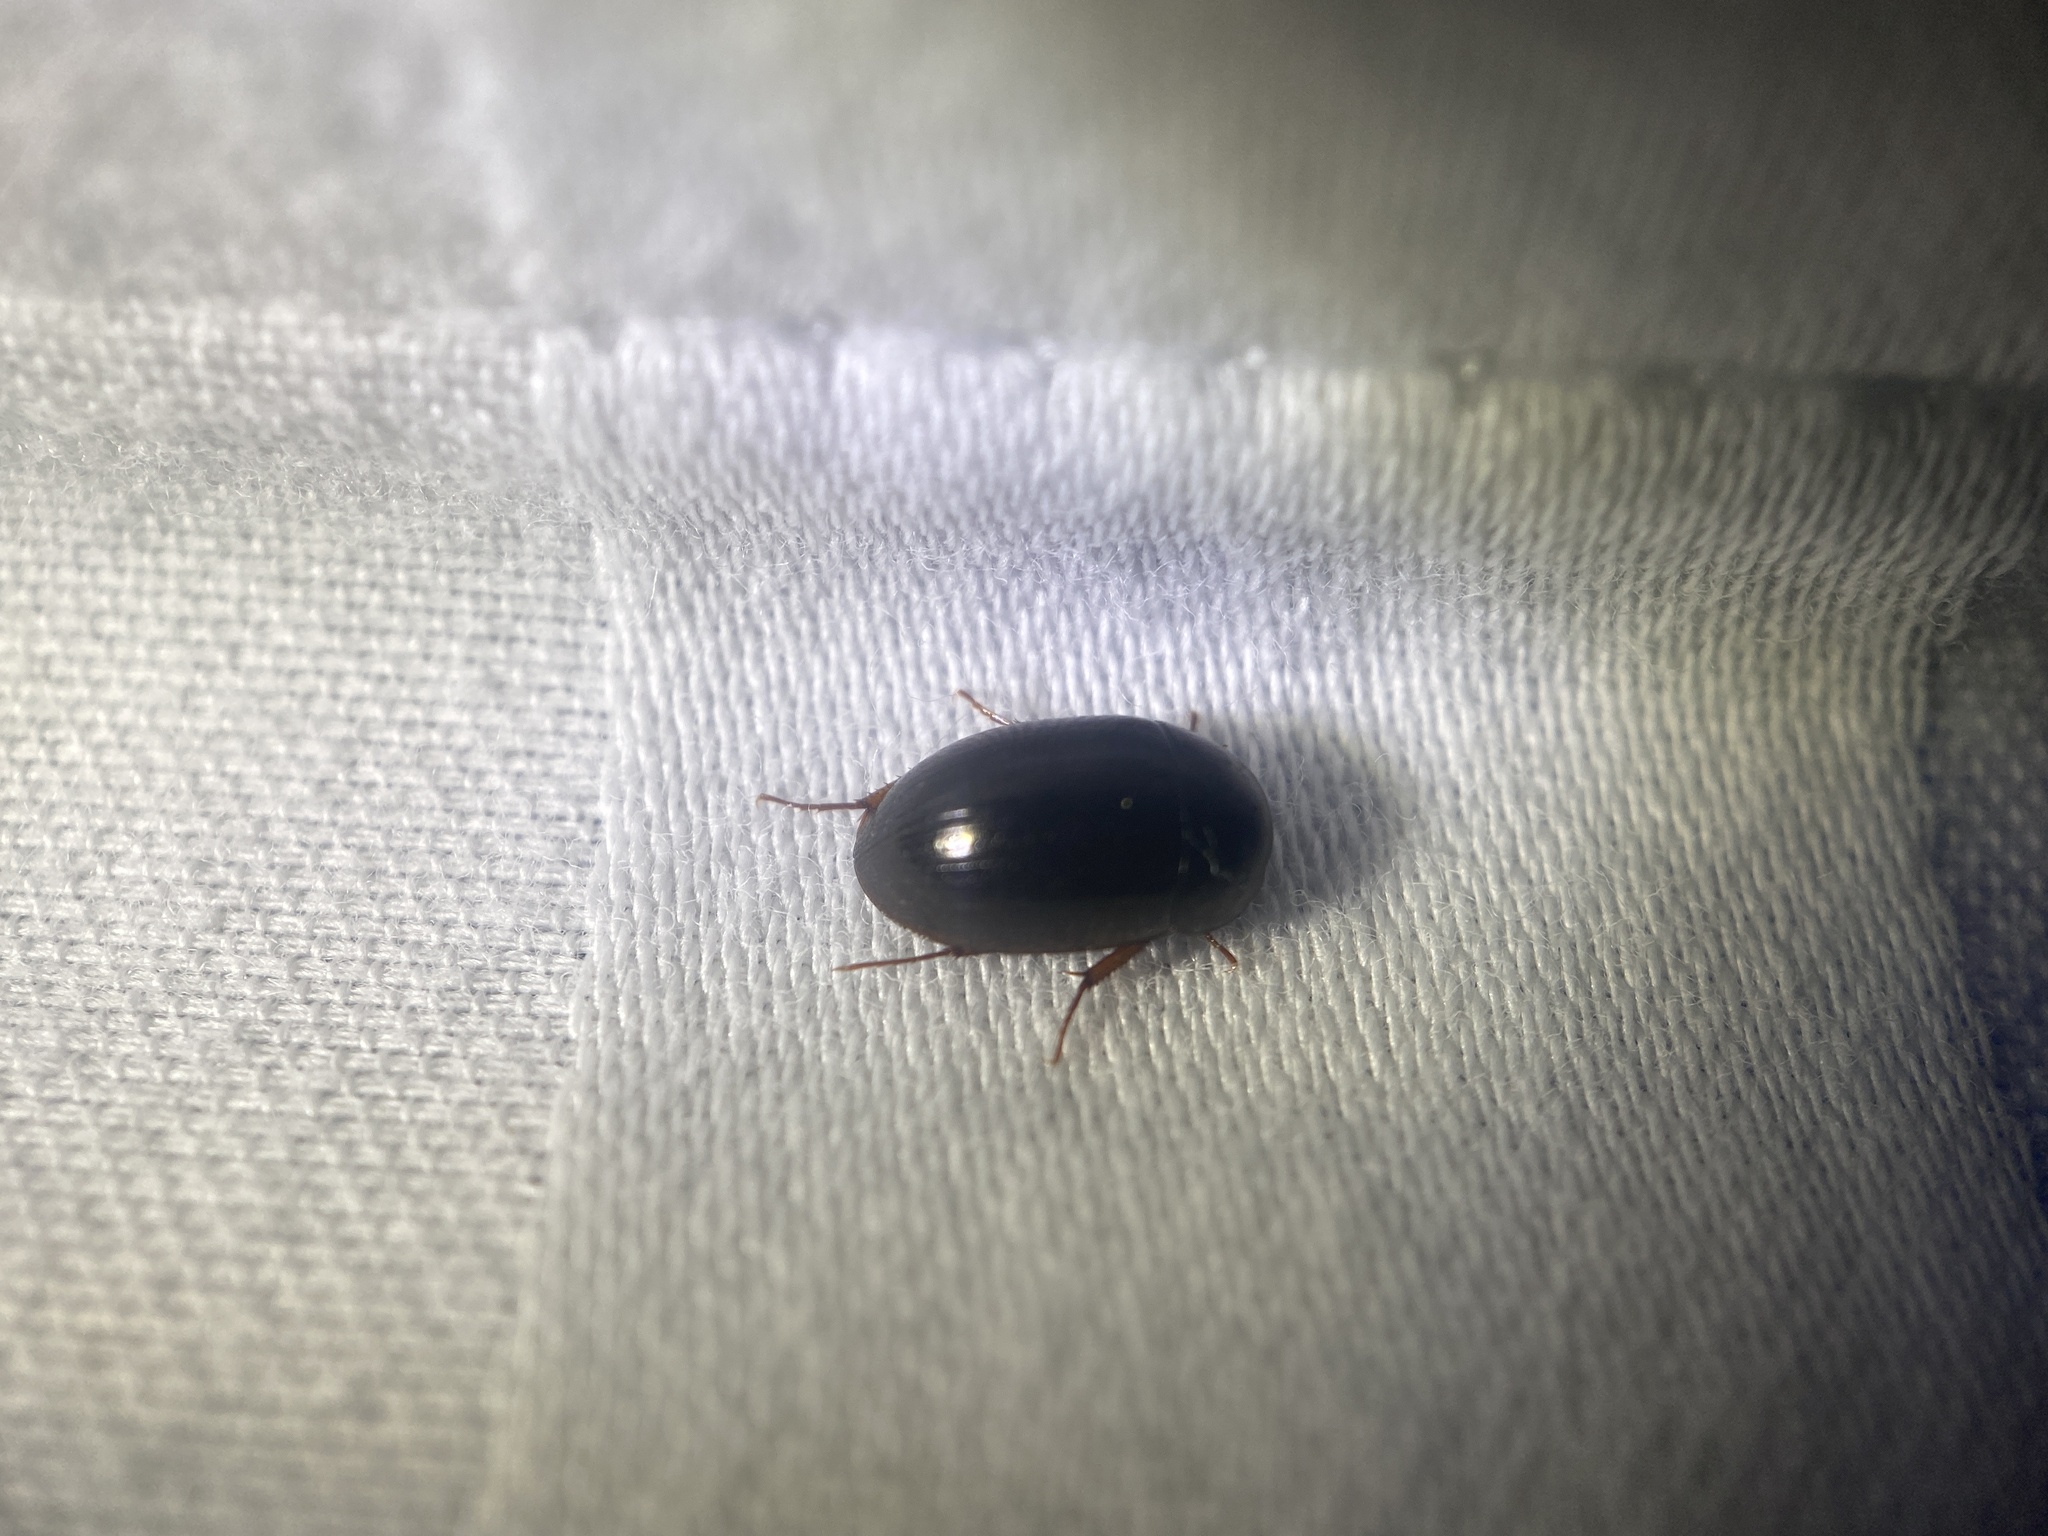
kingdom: Animalia
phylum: Arthropoda
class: Insecta
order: Coleoptera
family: Hydrophilidae
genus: Hydrobius
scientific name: Hydrobius fuscipes
